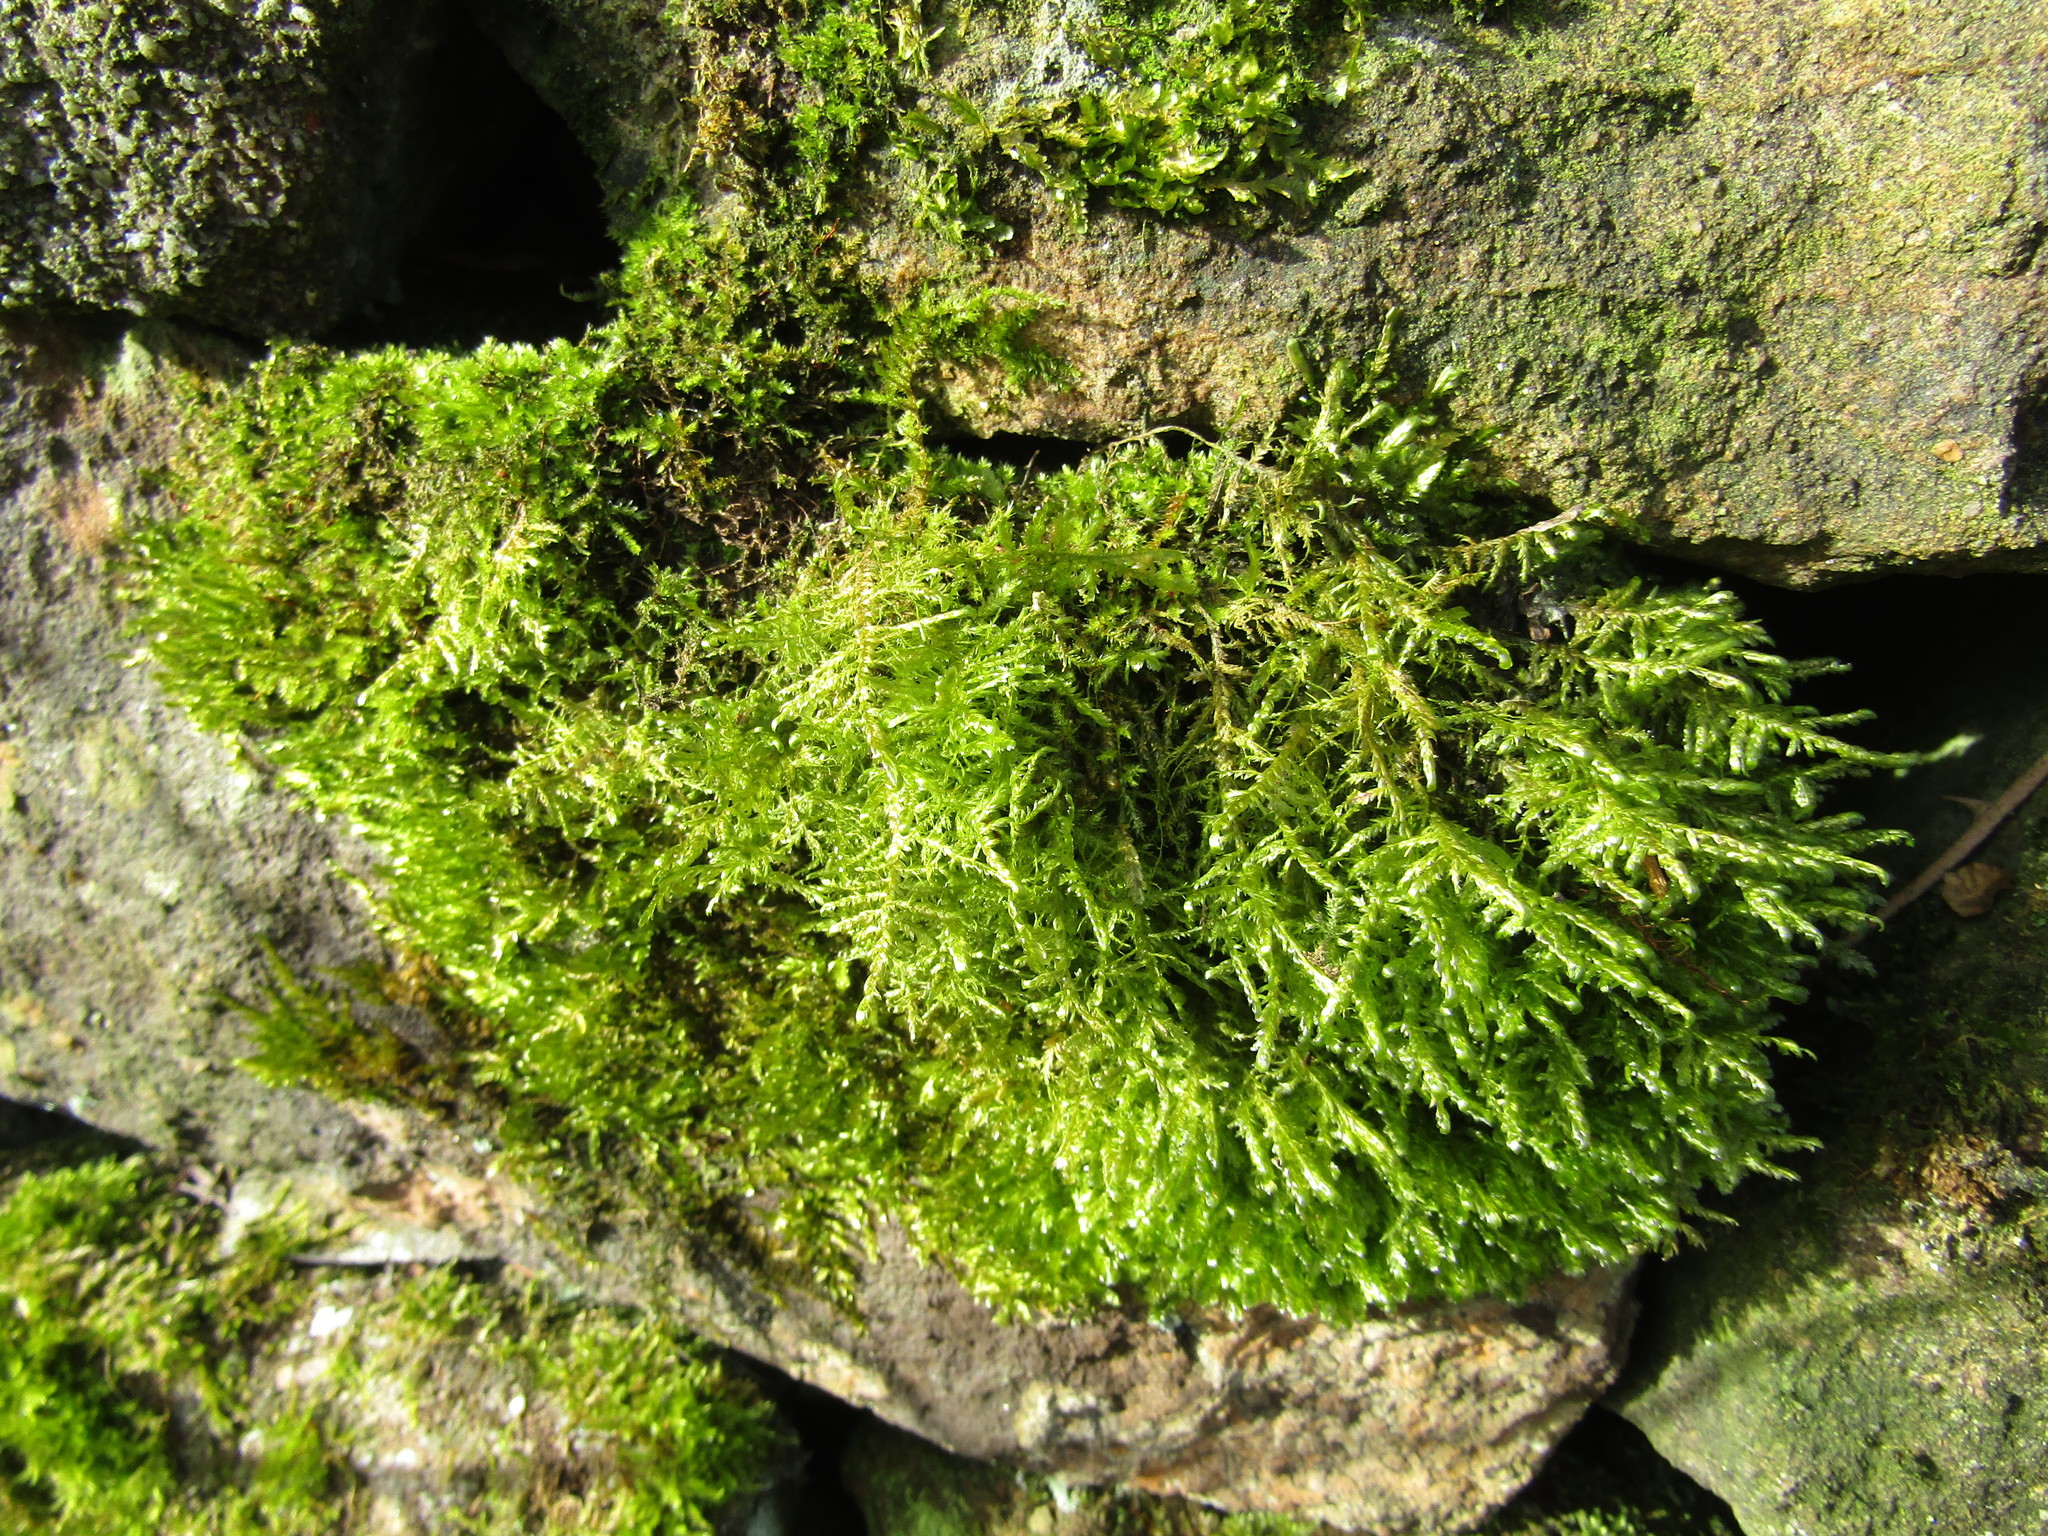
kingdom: Plantae
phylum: Bryophyta
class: Bryopsida
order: Hypnales
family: Neckeraceae
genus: Alleniella
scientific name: Alleniella complanata
